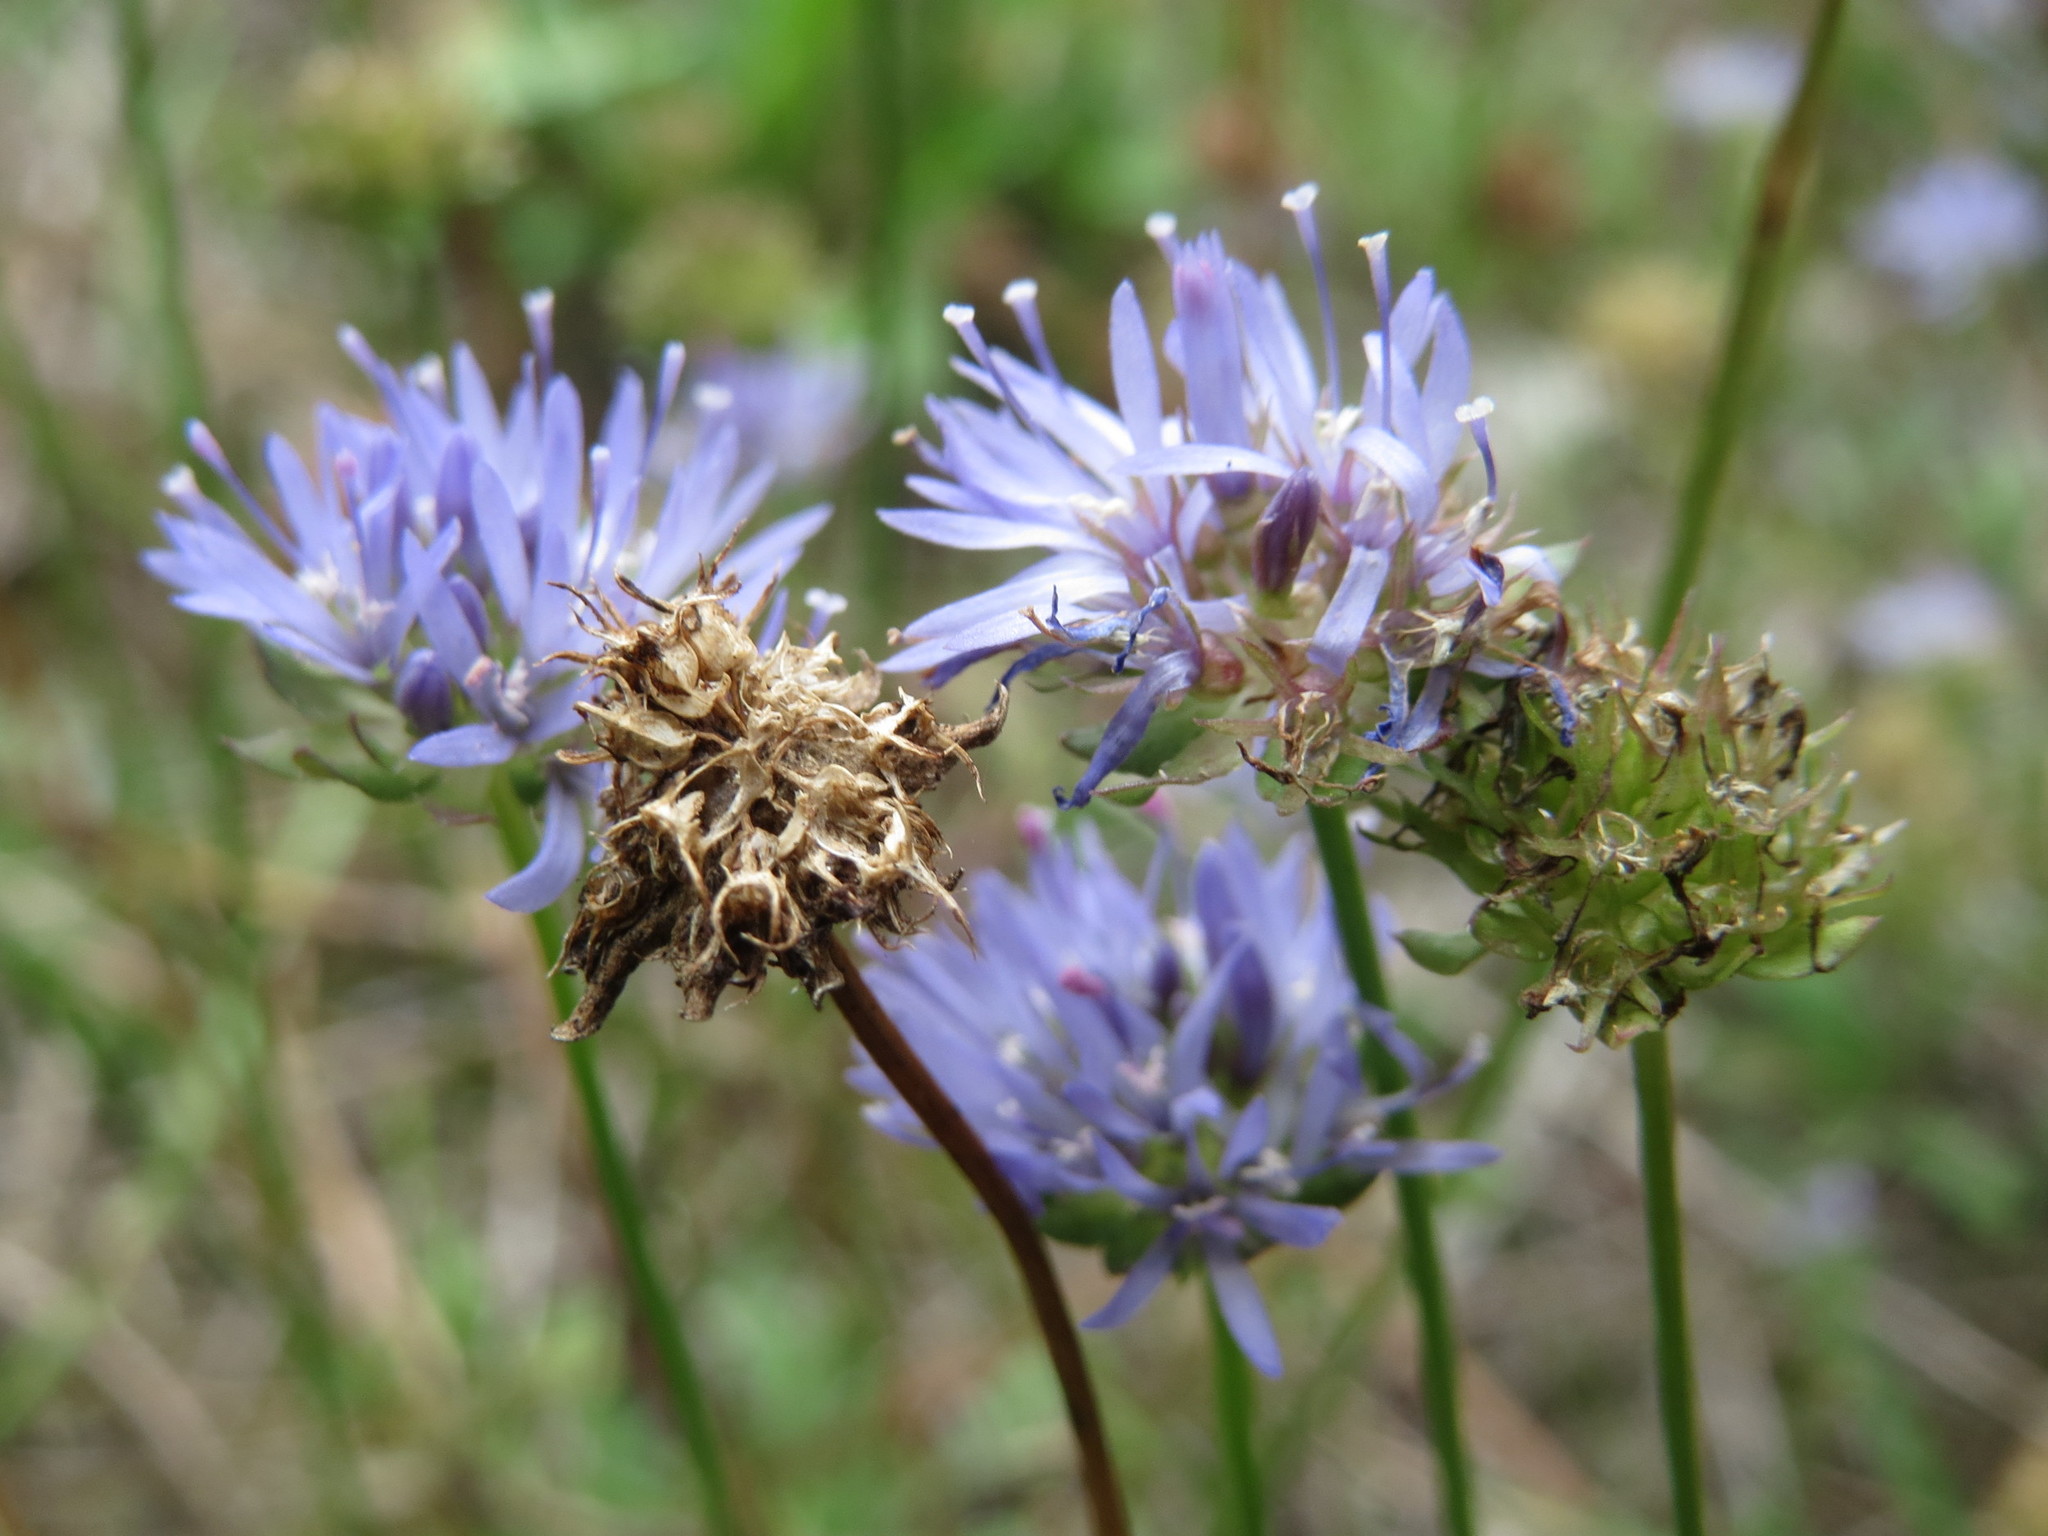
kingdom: Plantae
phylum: Tracheophyta
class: Magnoliopsida
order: Asterales
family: Campanulaceae
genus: Jasione
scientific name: Jasione montana
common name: Sheep's-bit
